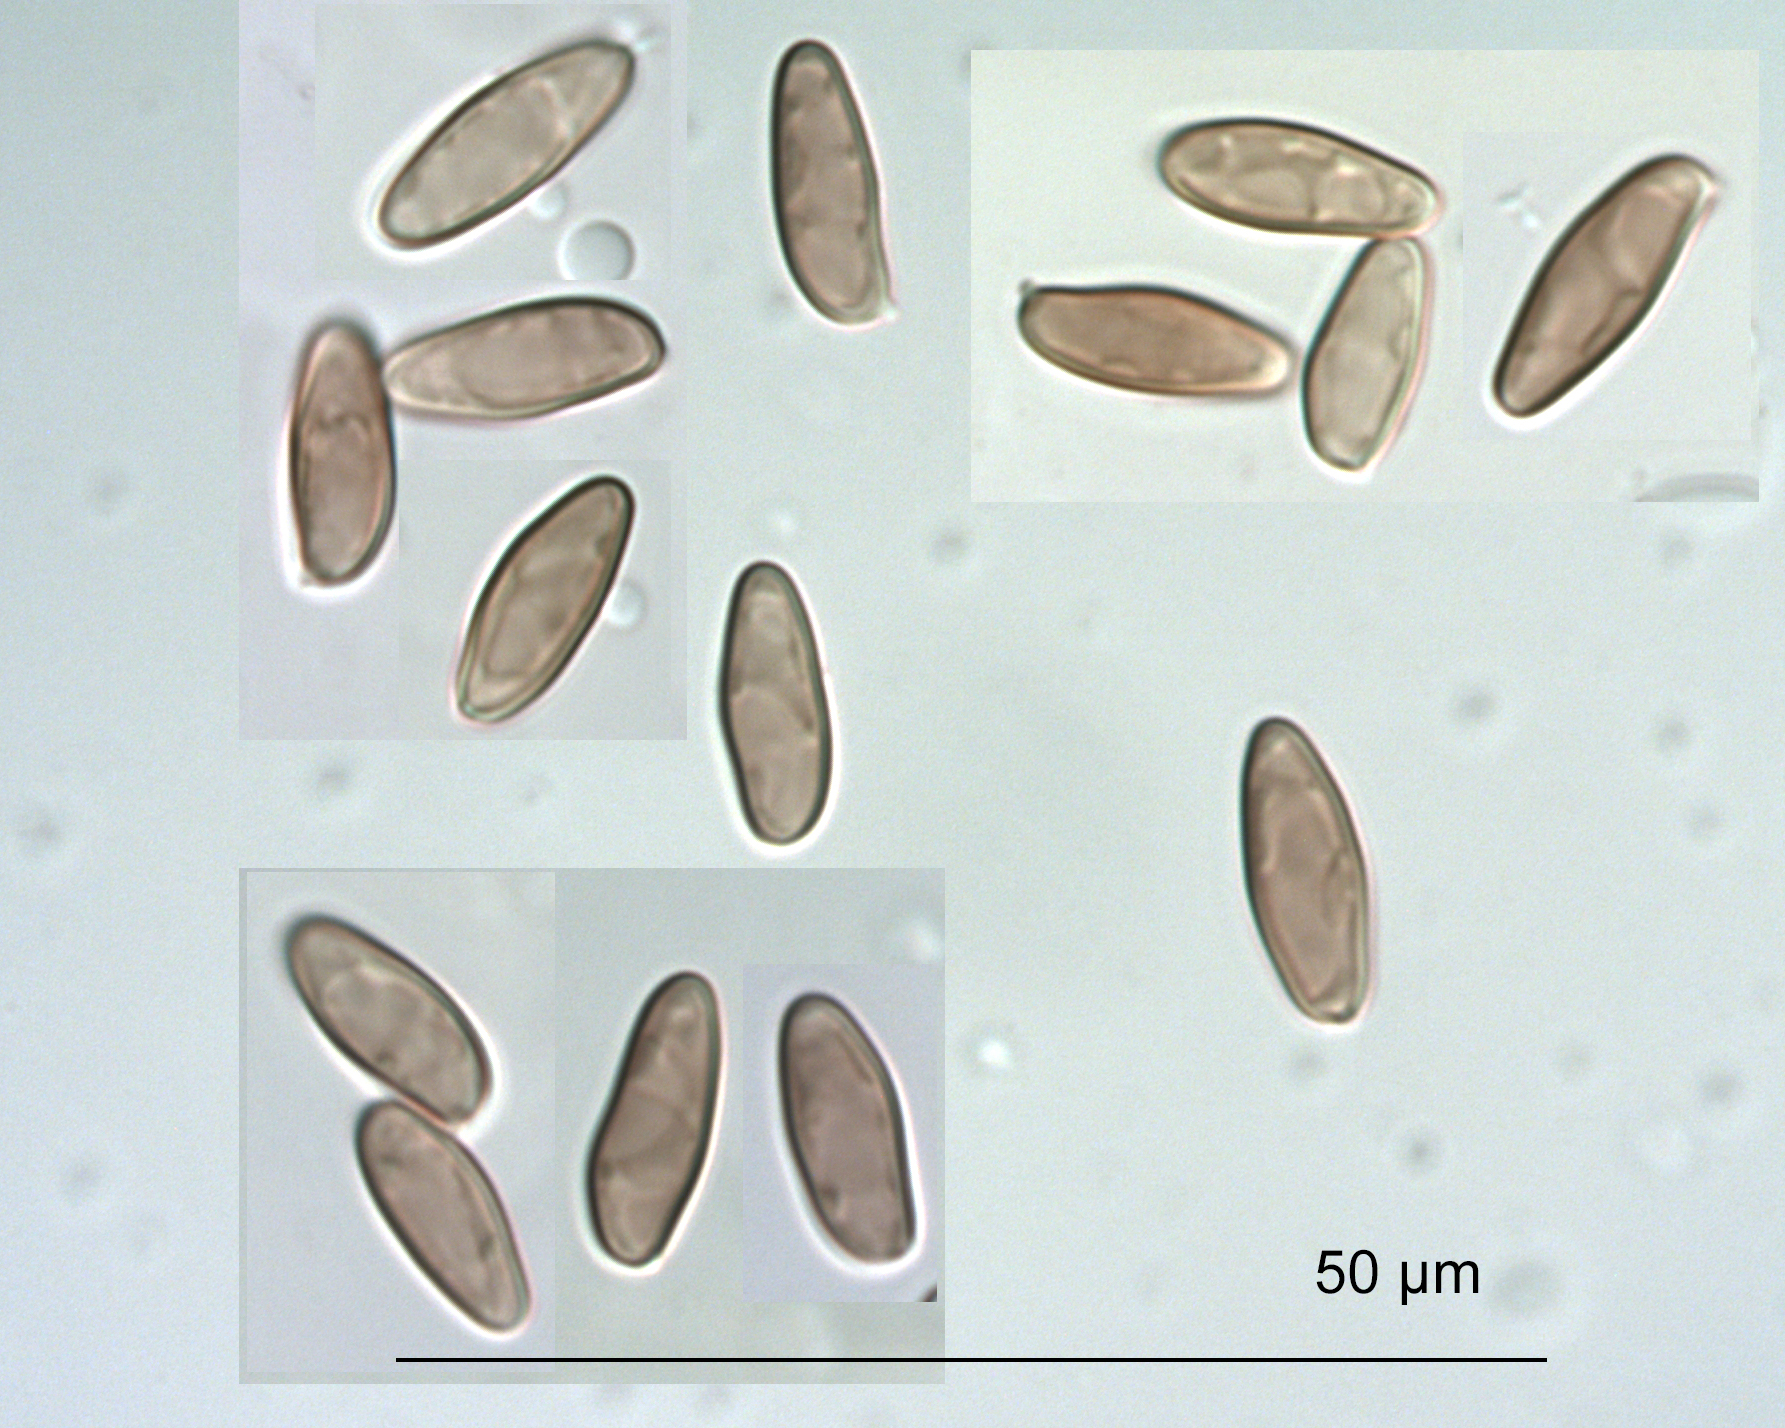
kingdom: Fungi
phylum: Basidiomycota
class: Agaricomycetes
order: Boletales
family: Boletaceae
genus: Porphyrellus
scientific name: Porphyrellus brunneus
